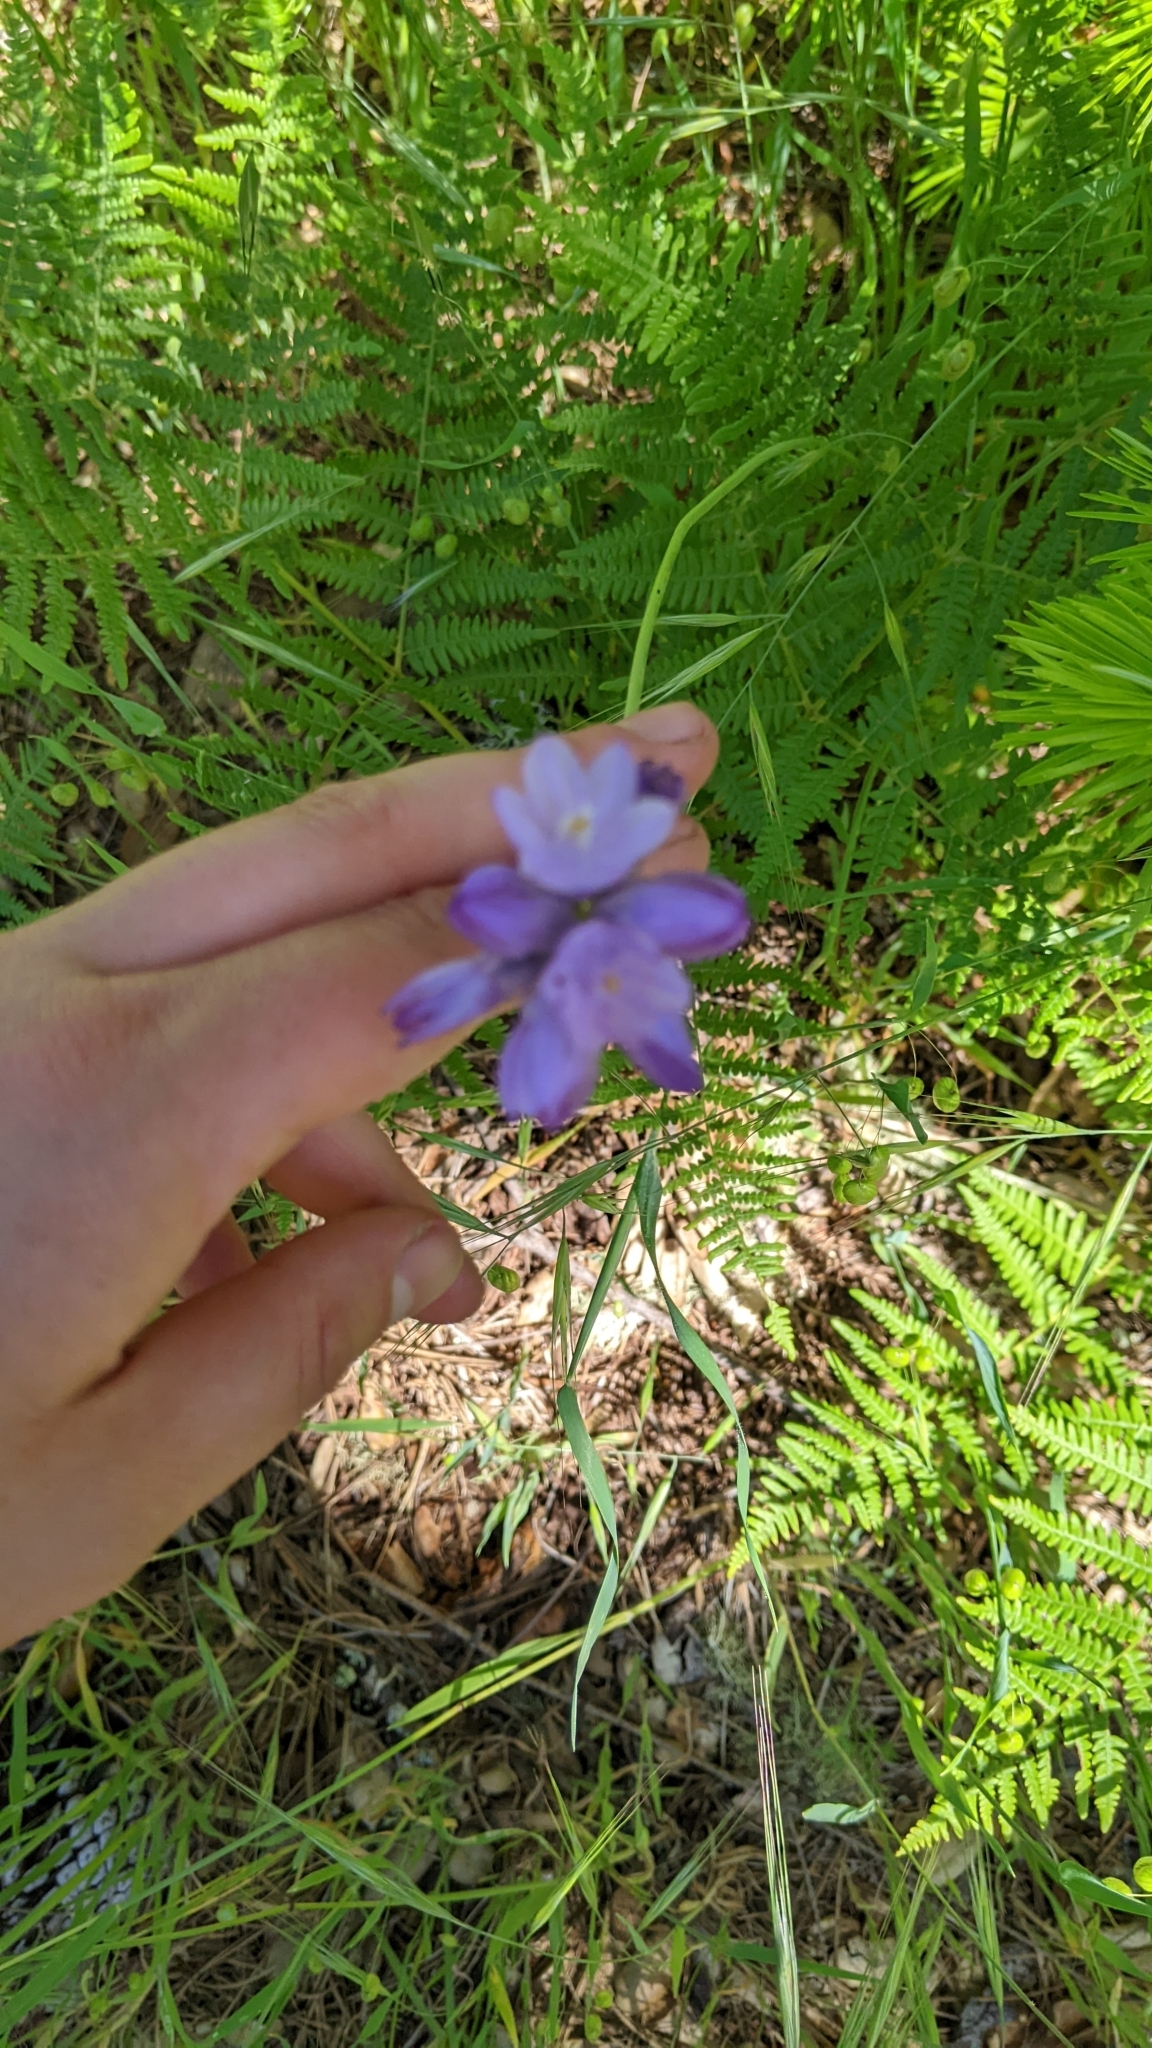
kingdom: Plantae
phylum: Tracheophyta
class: Liliopsida
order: Asparagales
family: Asparagaceae
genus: Dipterostemon
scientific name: Dipterostemon capitatus
